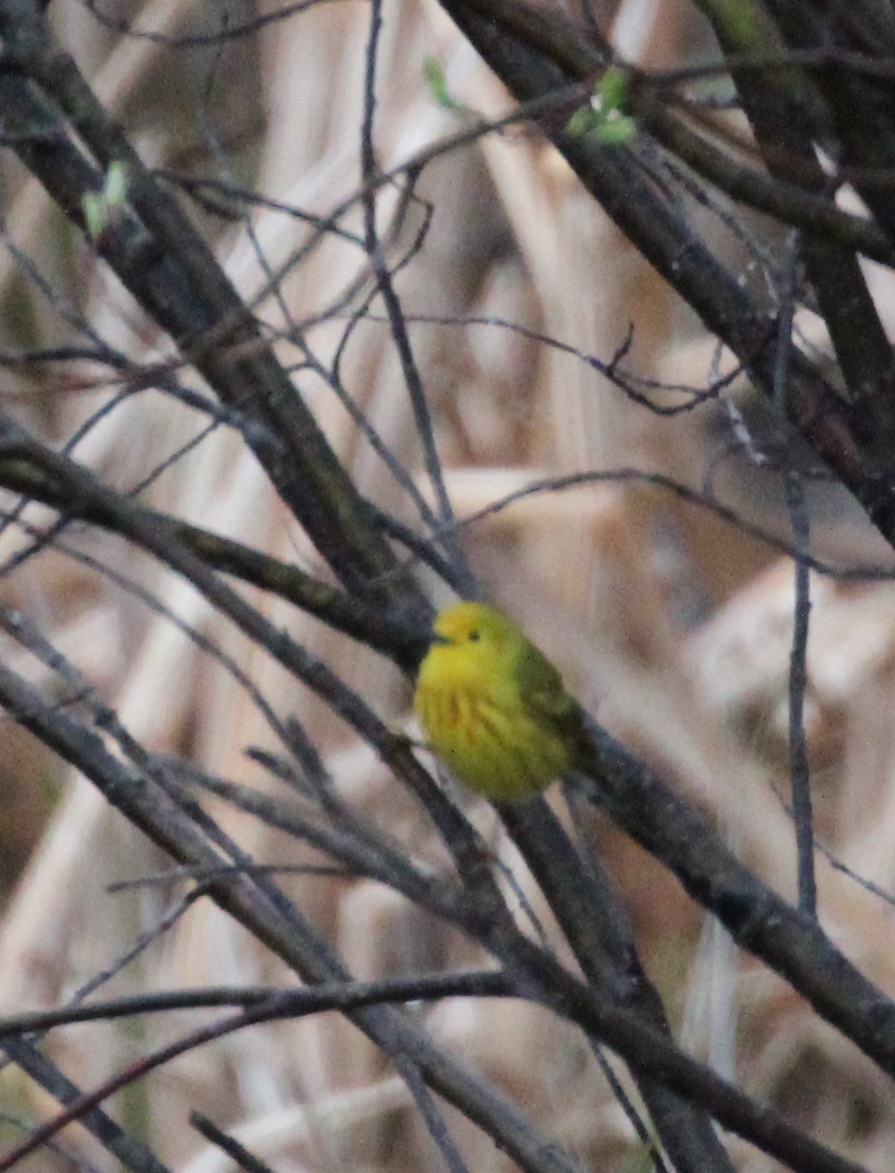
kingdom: Animalia
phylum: Chordata
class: Aves
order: Passeriformes
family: Parulidae
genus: Setophaga
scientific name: Setophaga petechia
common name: Yellow warbler
